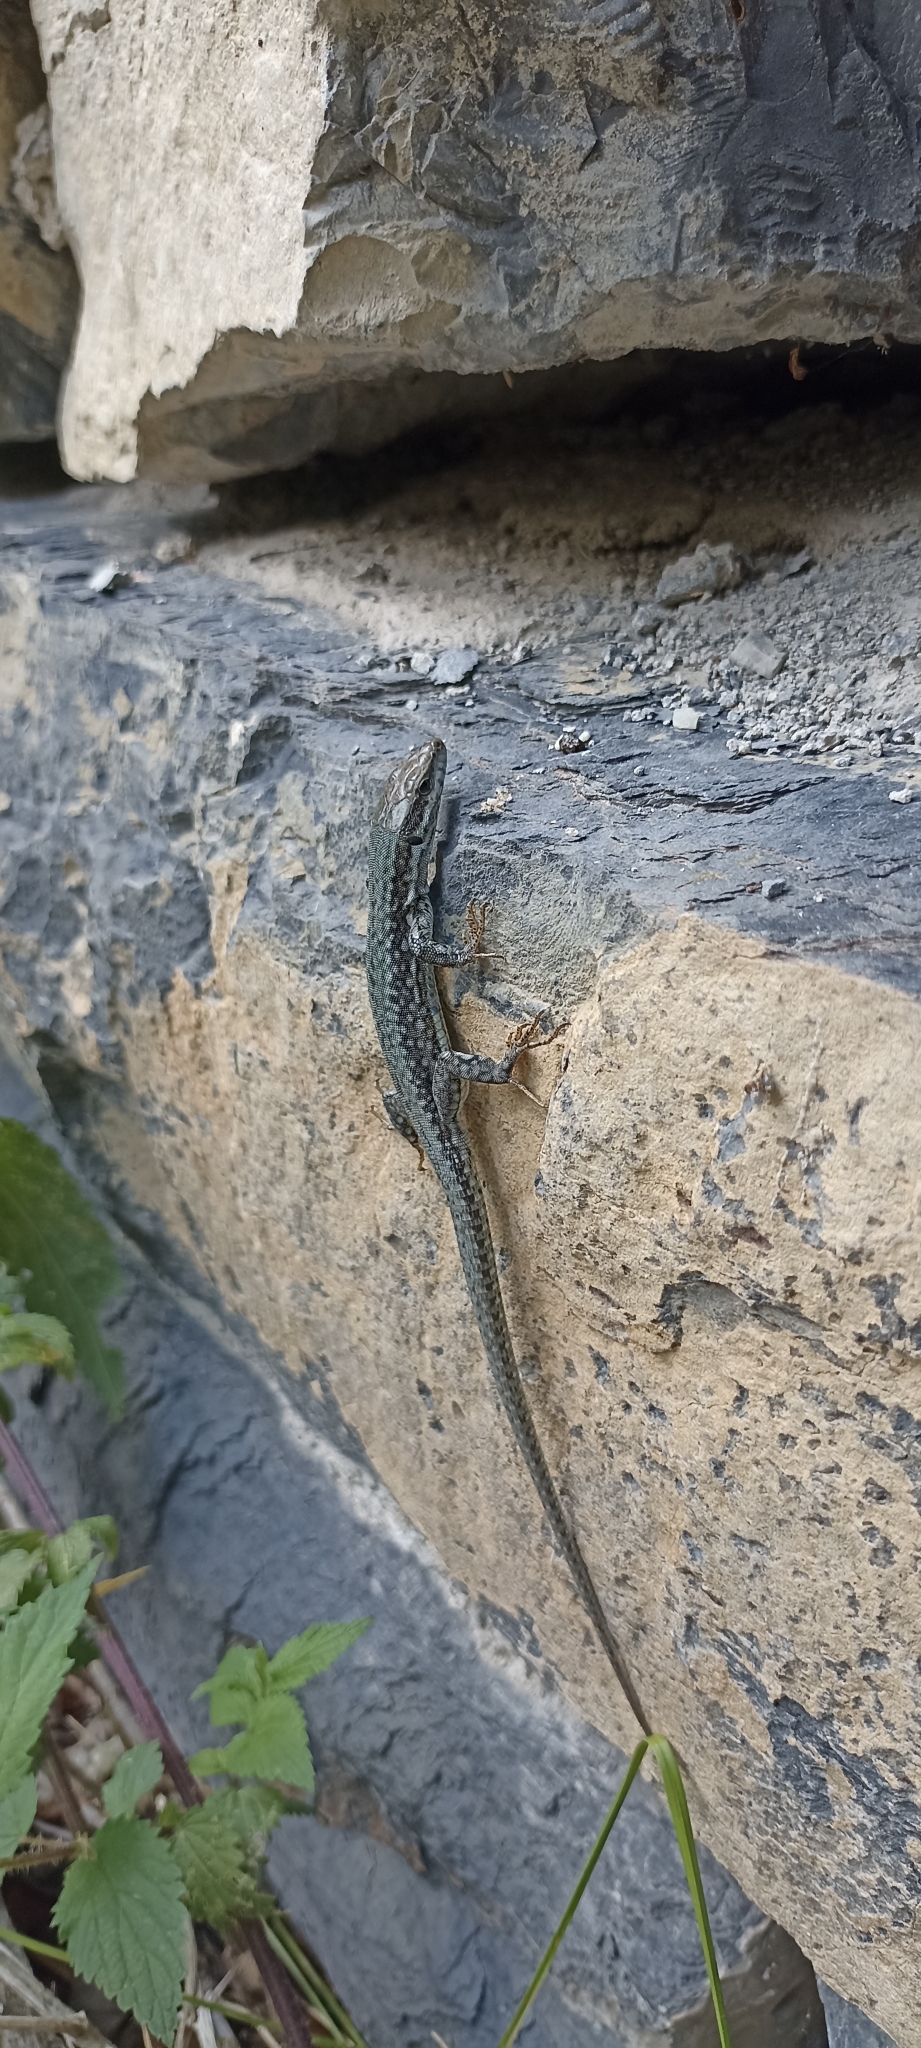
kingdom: Animalia
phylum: Chordata
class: Squamata
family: Lacertidae
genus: Podarcis
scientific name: Podarcis muralis
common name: Common wall lizard
